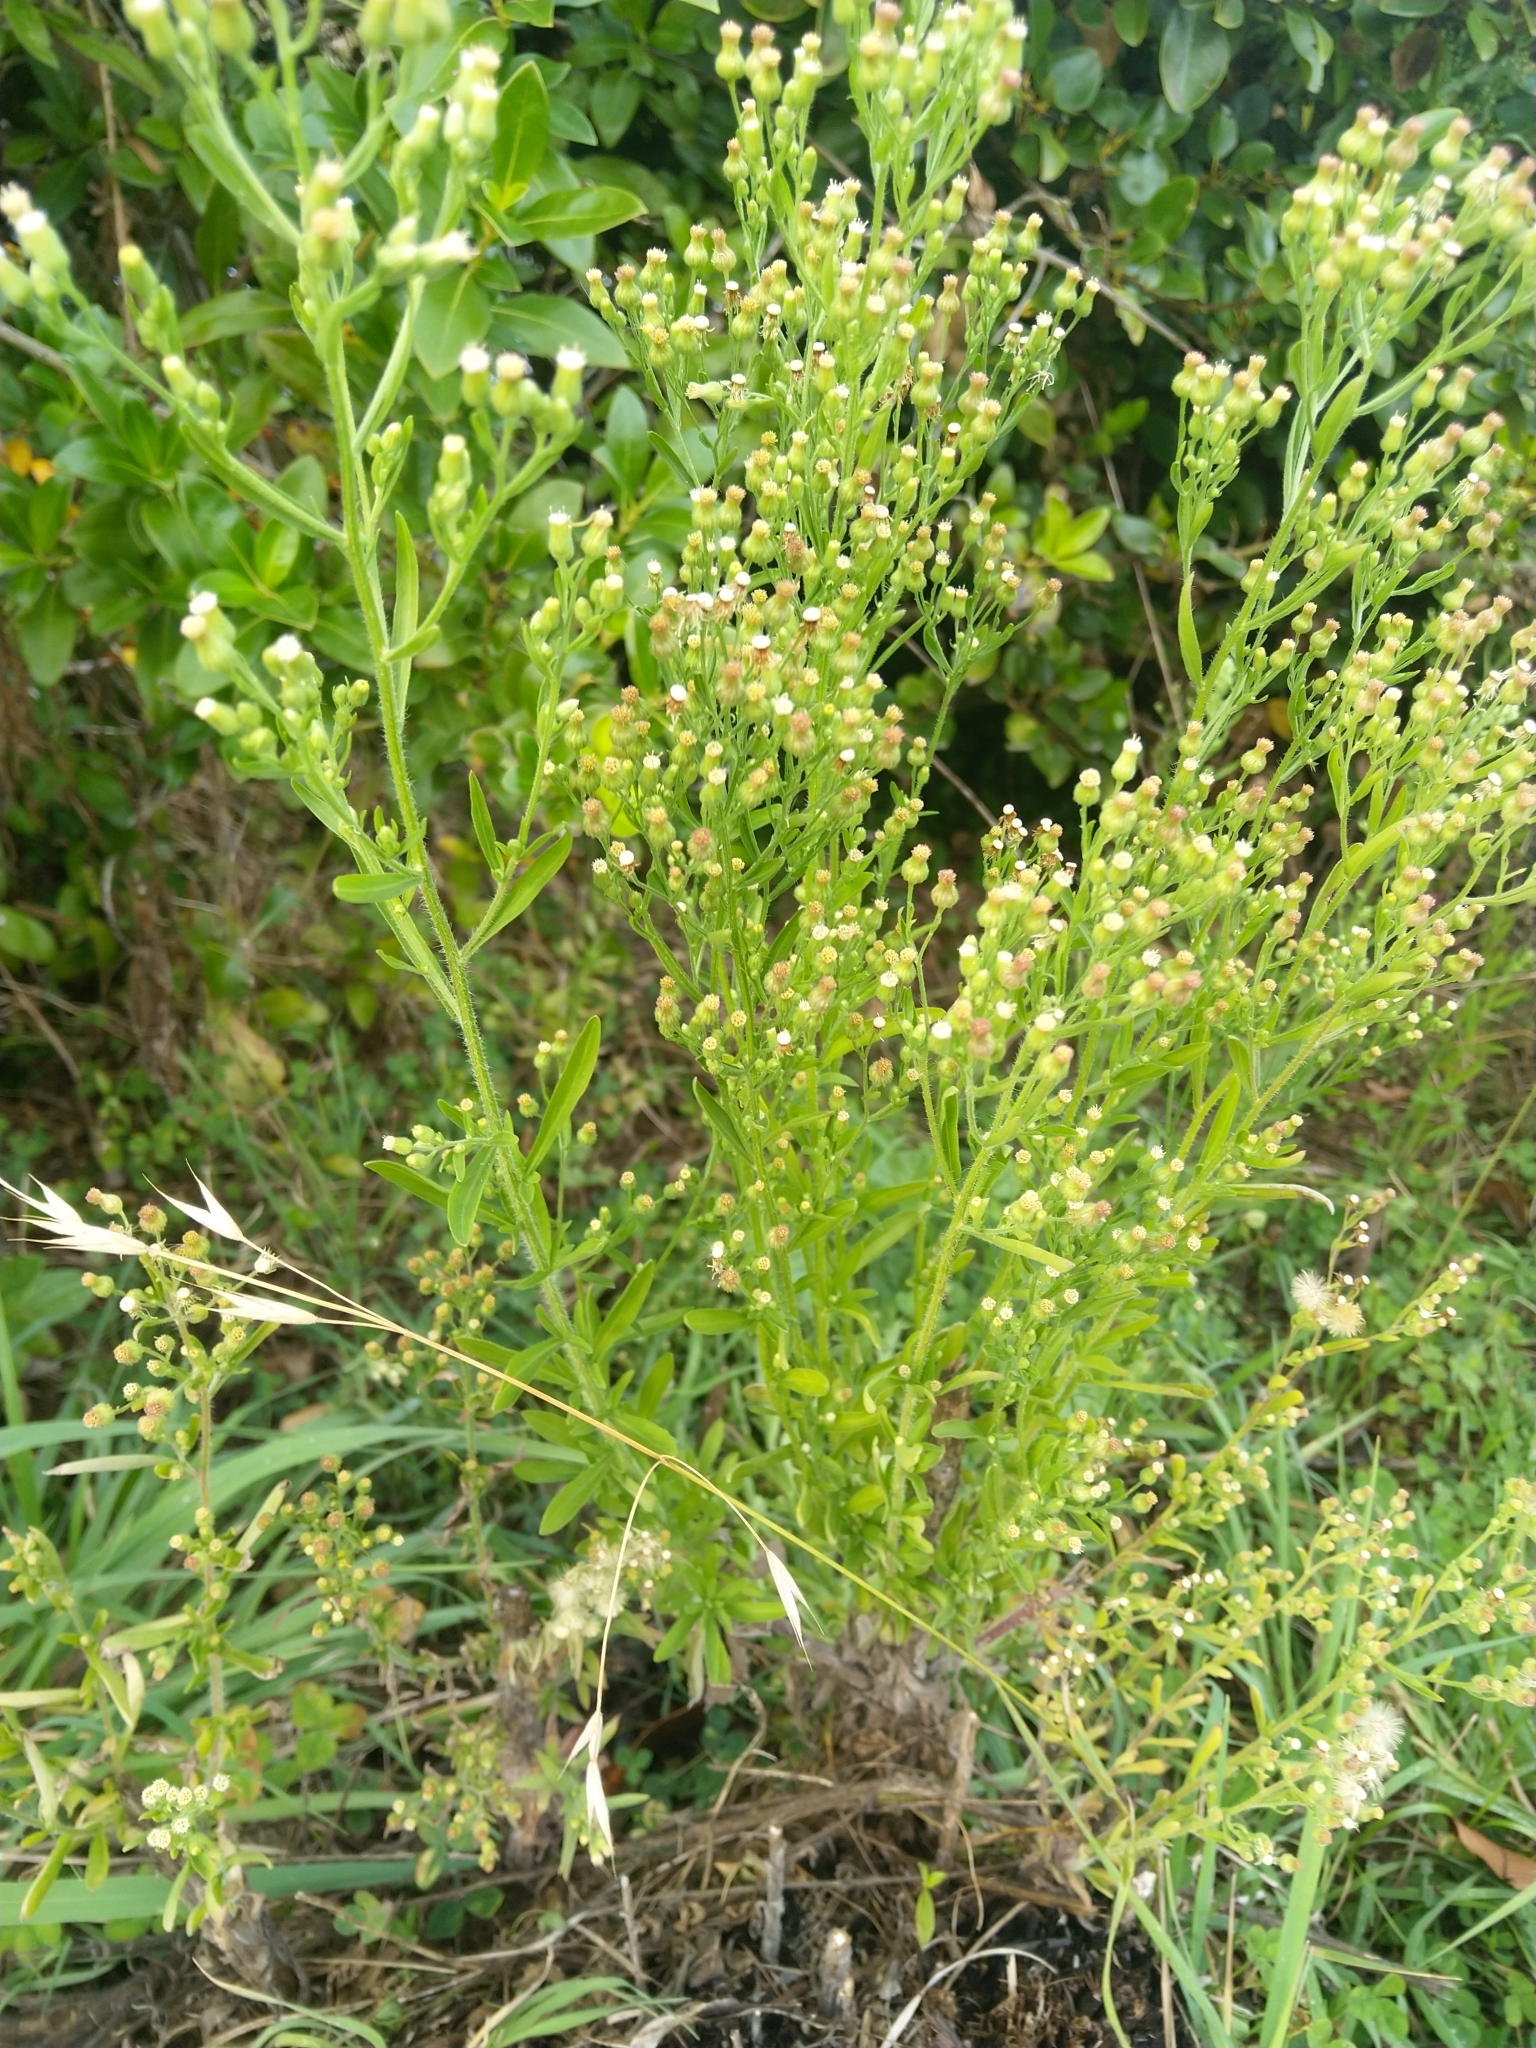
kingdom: Plantae
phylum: Tracheophyta
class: Magnoliopsida
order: Asterales
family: Asteraceae
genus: Erigeron
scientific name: Erigeron sumatrensis
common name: Daisy
